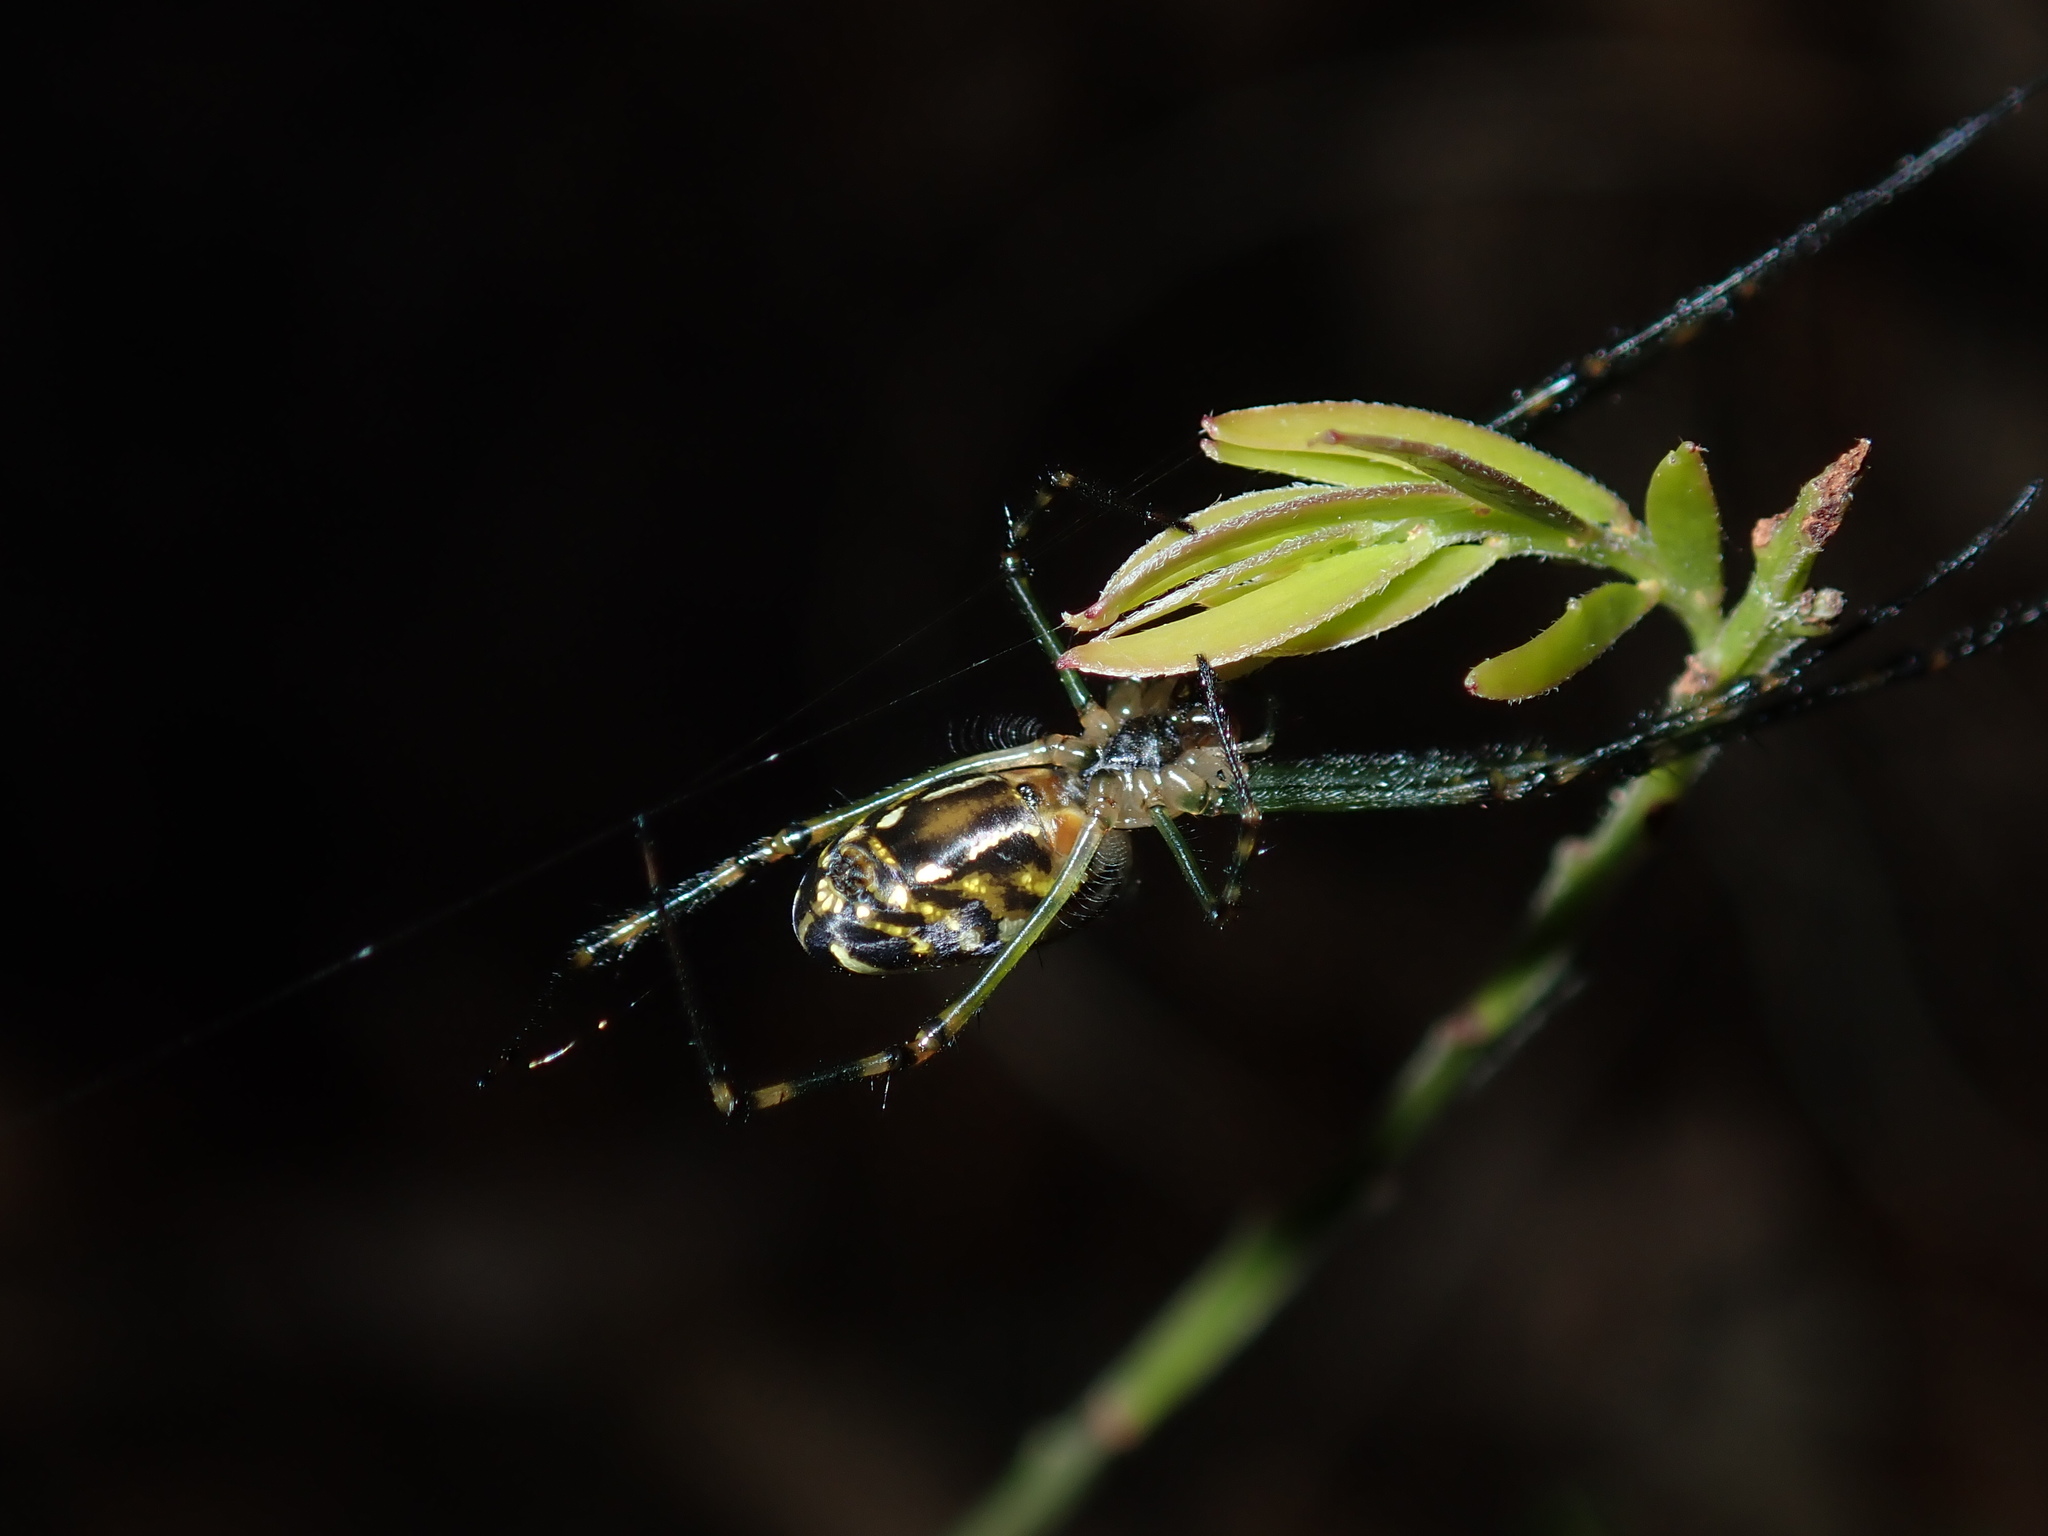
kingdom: Animalia
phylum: Arthropoda
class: Arachnida
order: Araneae
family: Tetragnathidae
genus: Leucauge
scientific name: Leucauge dromedaria
